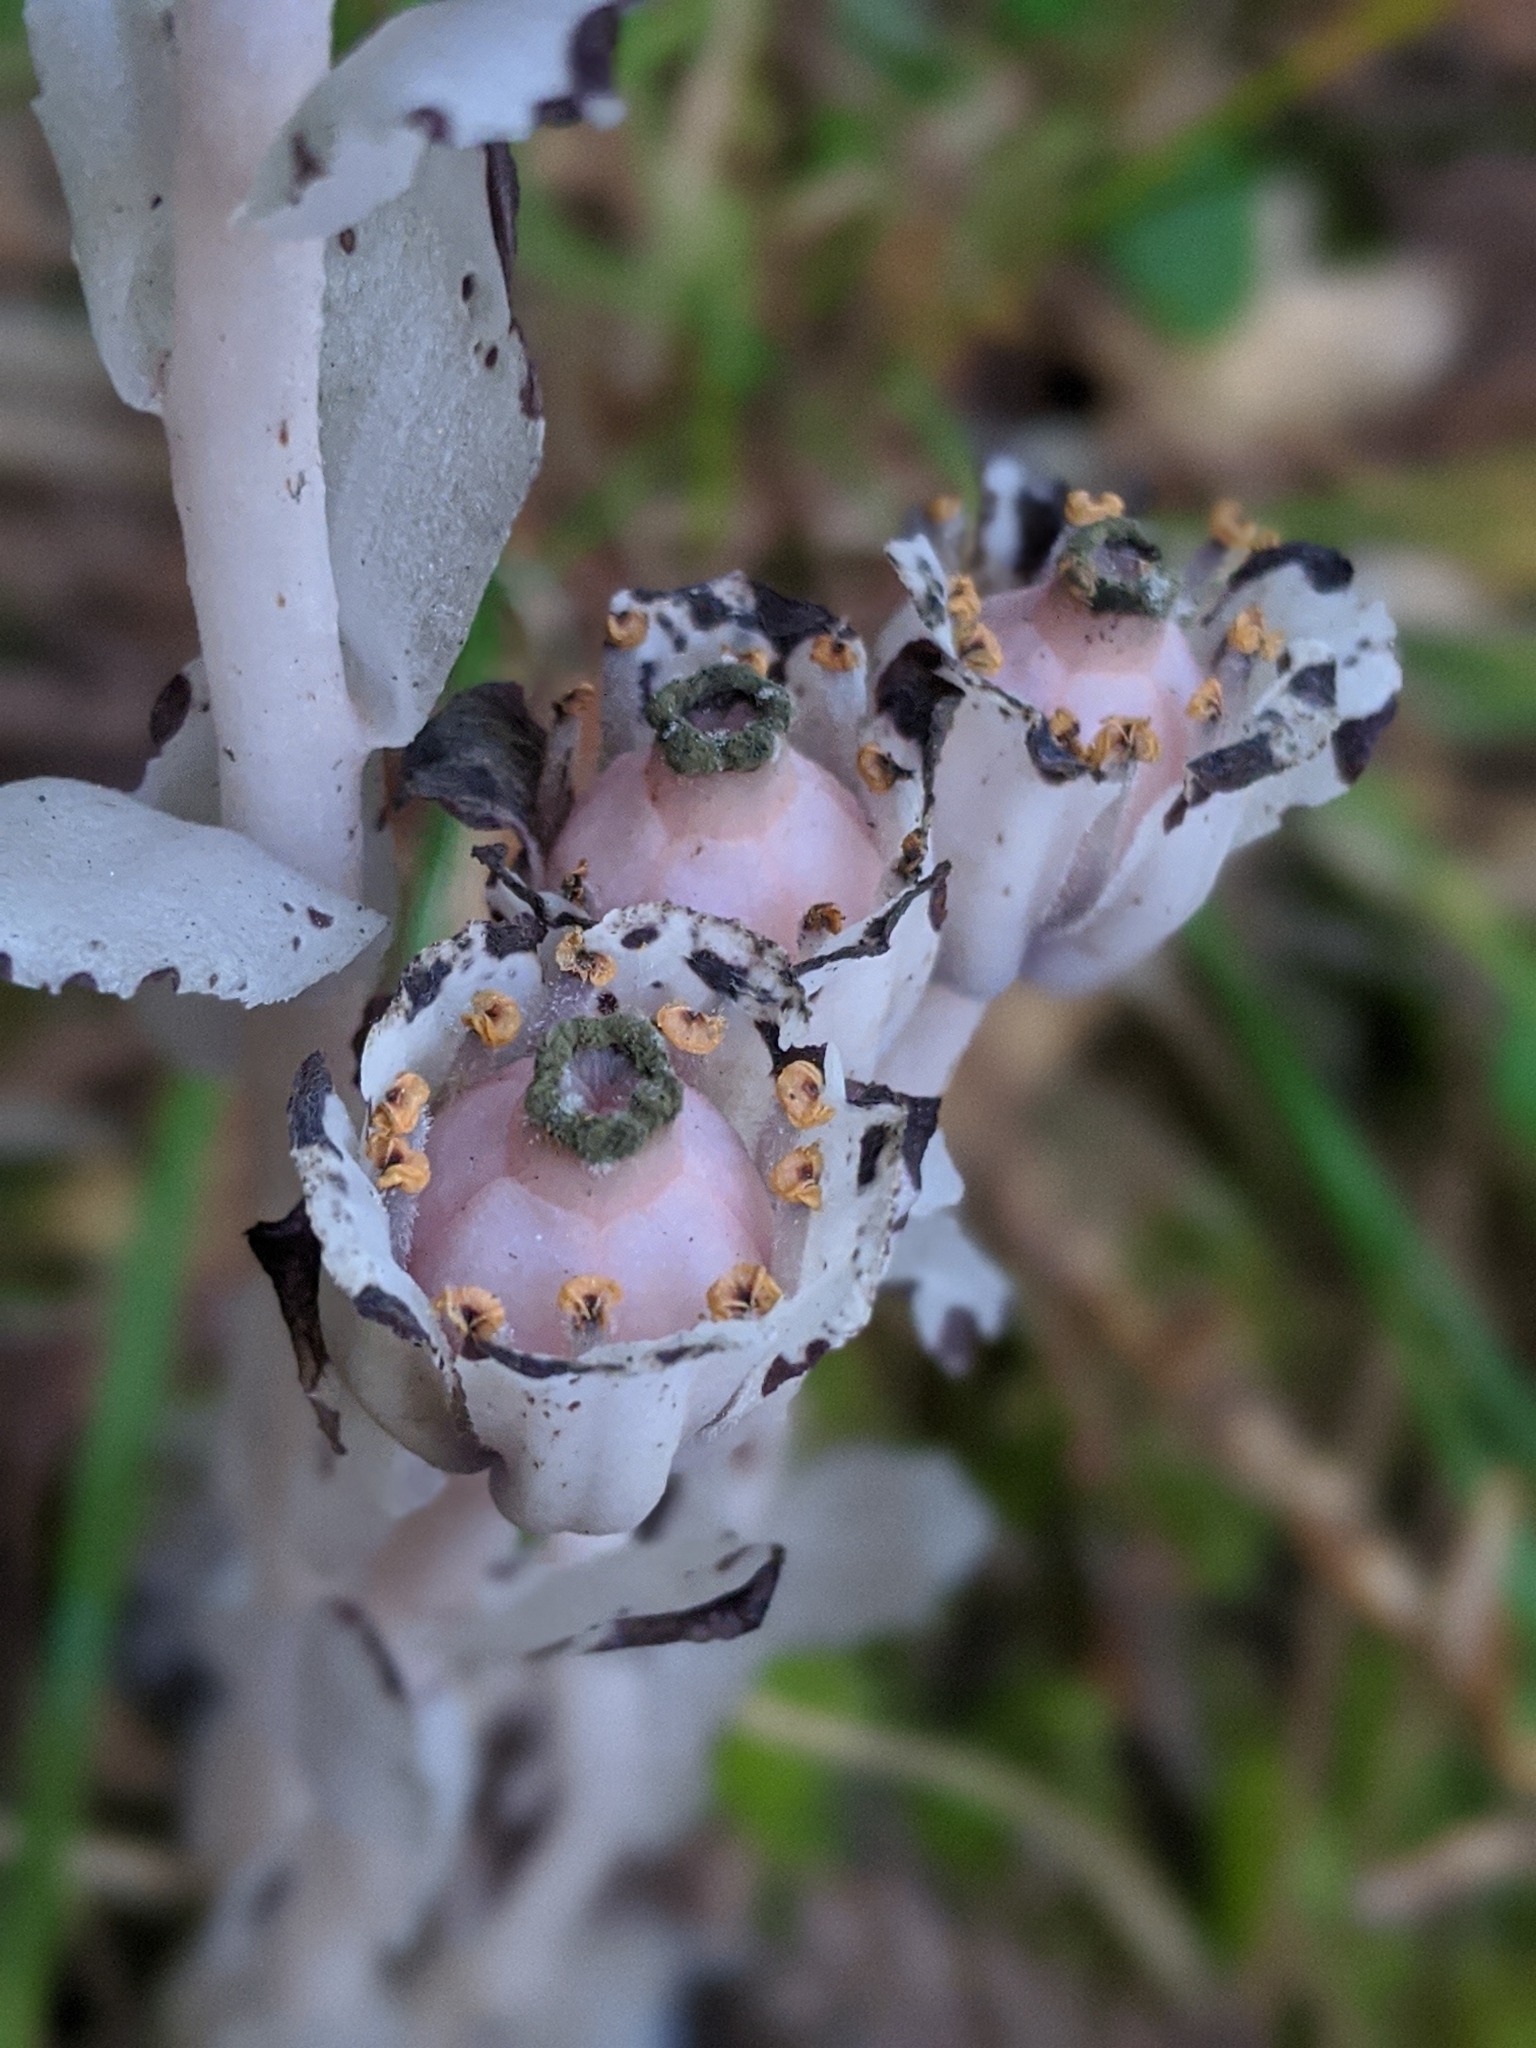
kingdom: Plantae
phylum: Tracheophyta
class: Magnoliopsida
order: Ericales
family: Ericaceae
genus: Monotropa
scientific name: Monotropa uniflora
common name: Convulsion root
